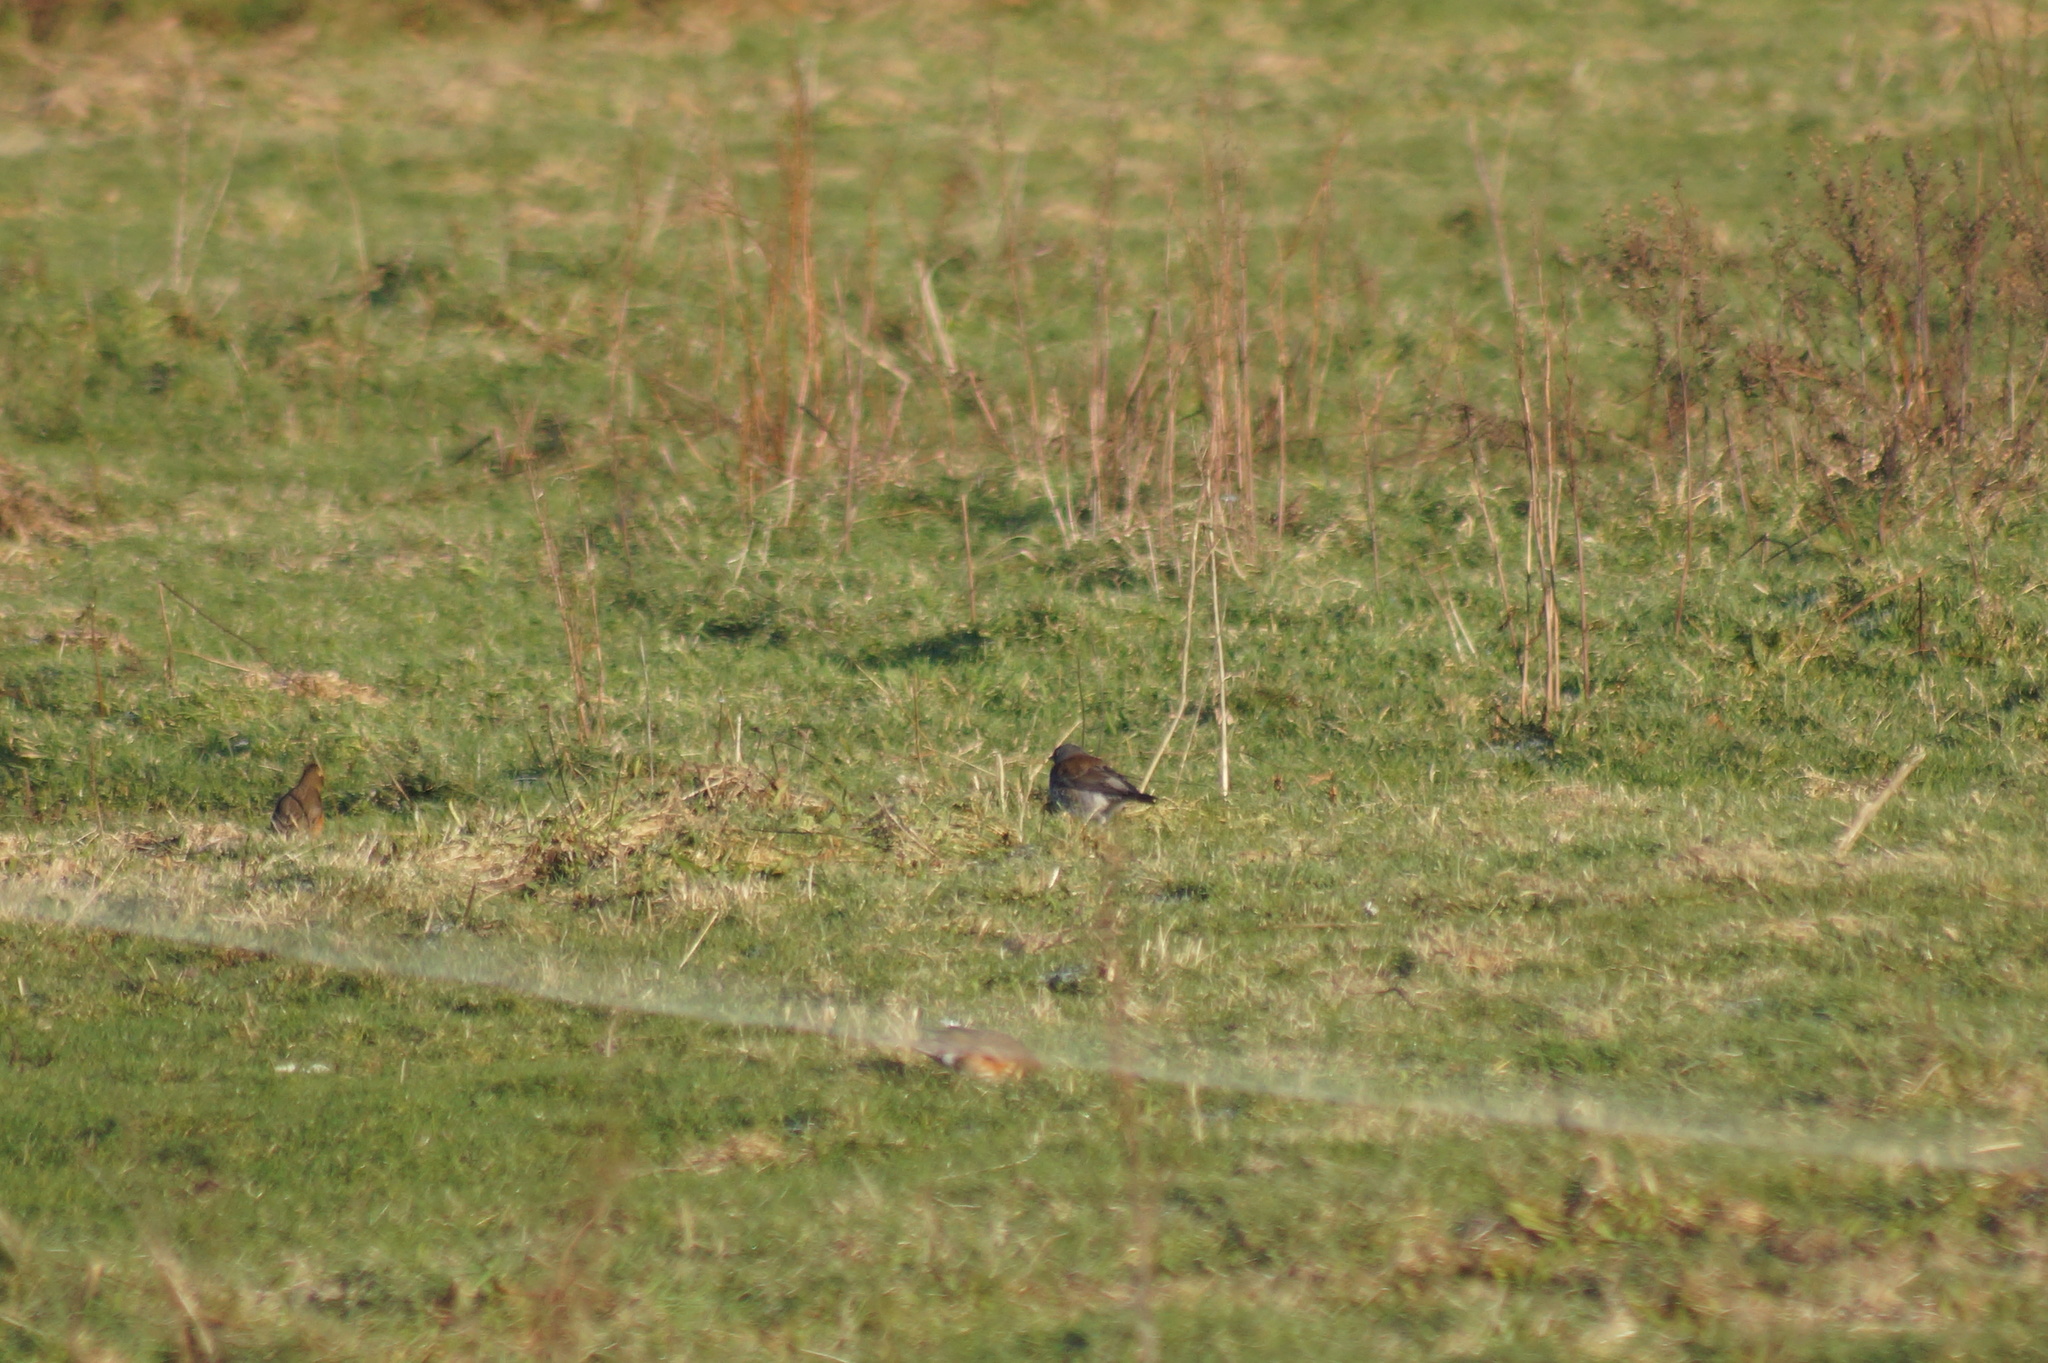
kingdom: Animalia
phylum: Chordata
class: Aves
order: Passeriformes
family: Turdidae
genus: Turdus
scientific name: Turdus pilaris
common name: Fieldfare
